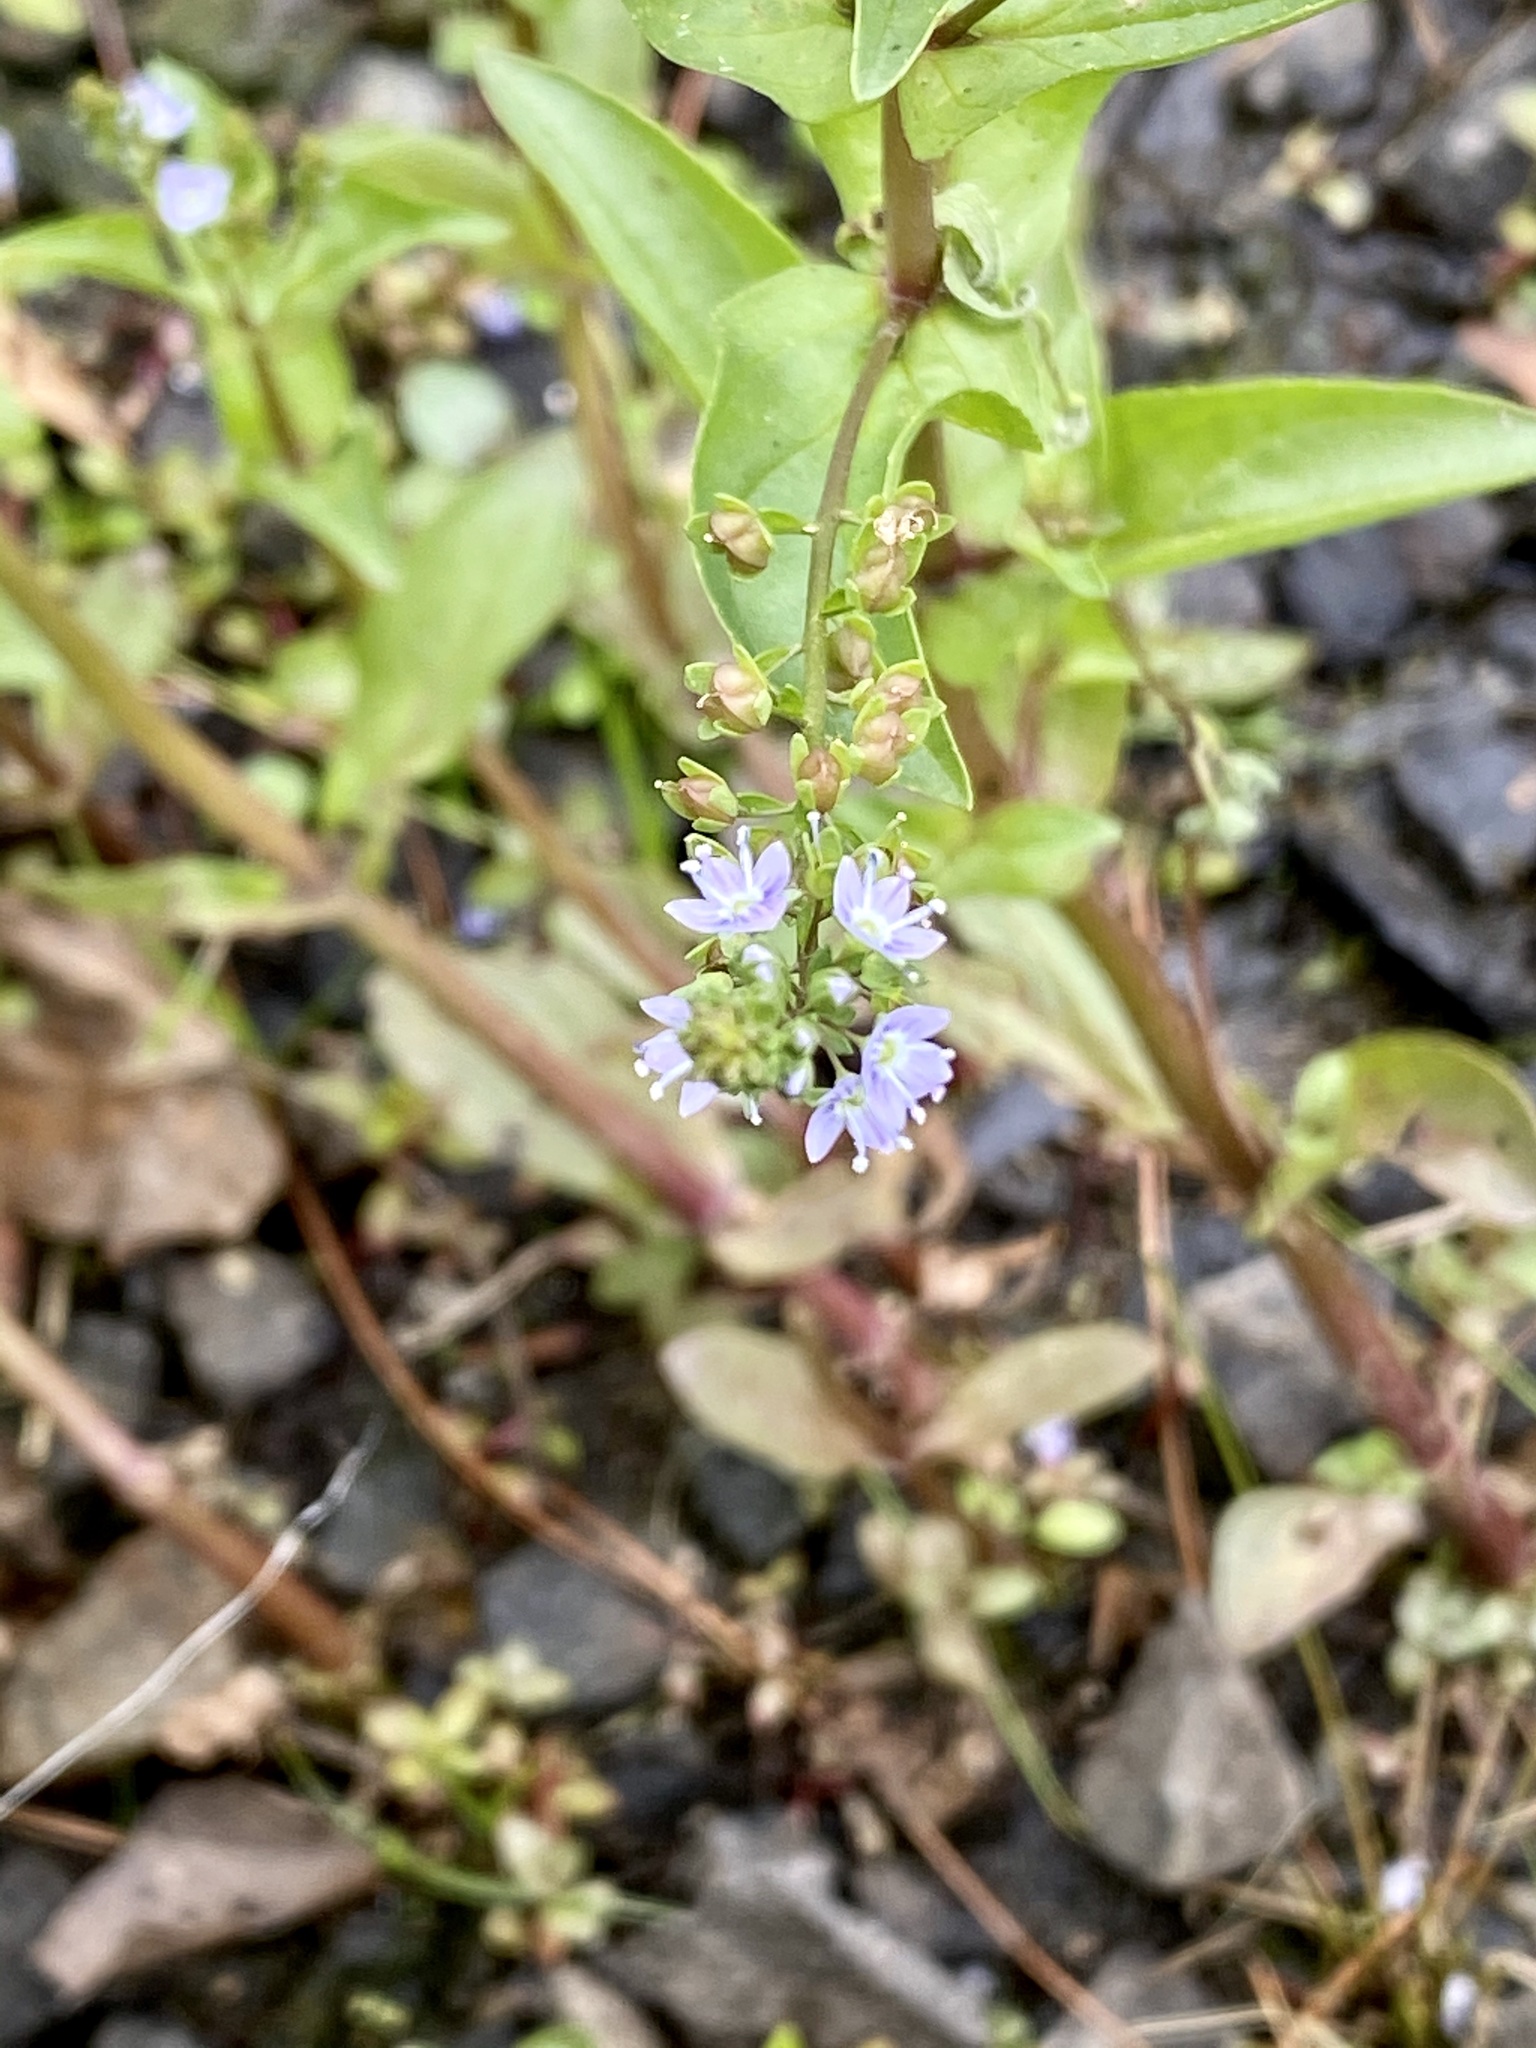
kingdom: Plantae
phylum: Tracheophyta
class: Magnoliopsida
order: Lamiales
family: Plantaginaceae
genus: Veronica
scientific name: Veronica anagallis-aquatica
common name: Water speedwell
